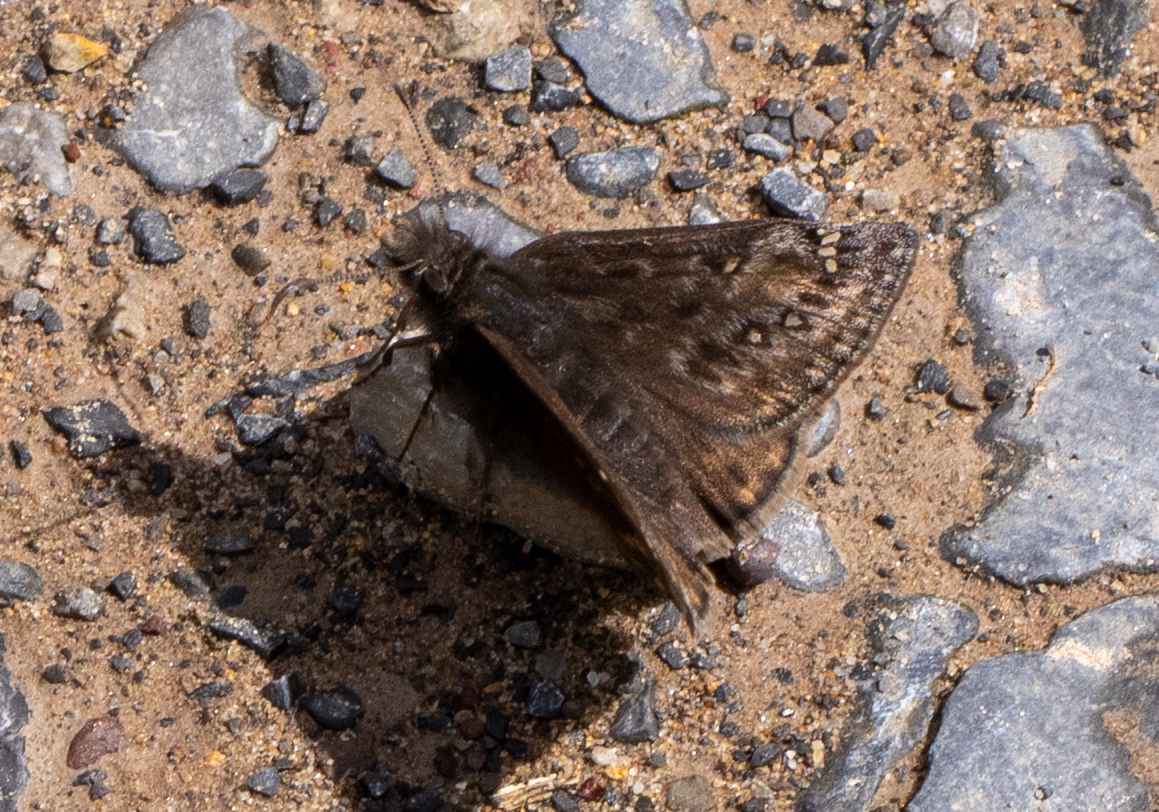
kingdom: Animalia
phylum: Arthropoda
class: Insecta
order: Lepidoptera
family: Hesperiidae
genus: Erynnis
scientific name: Erynnis juvenalis
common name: Juvenal's duskywing
